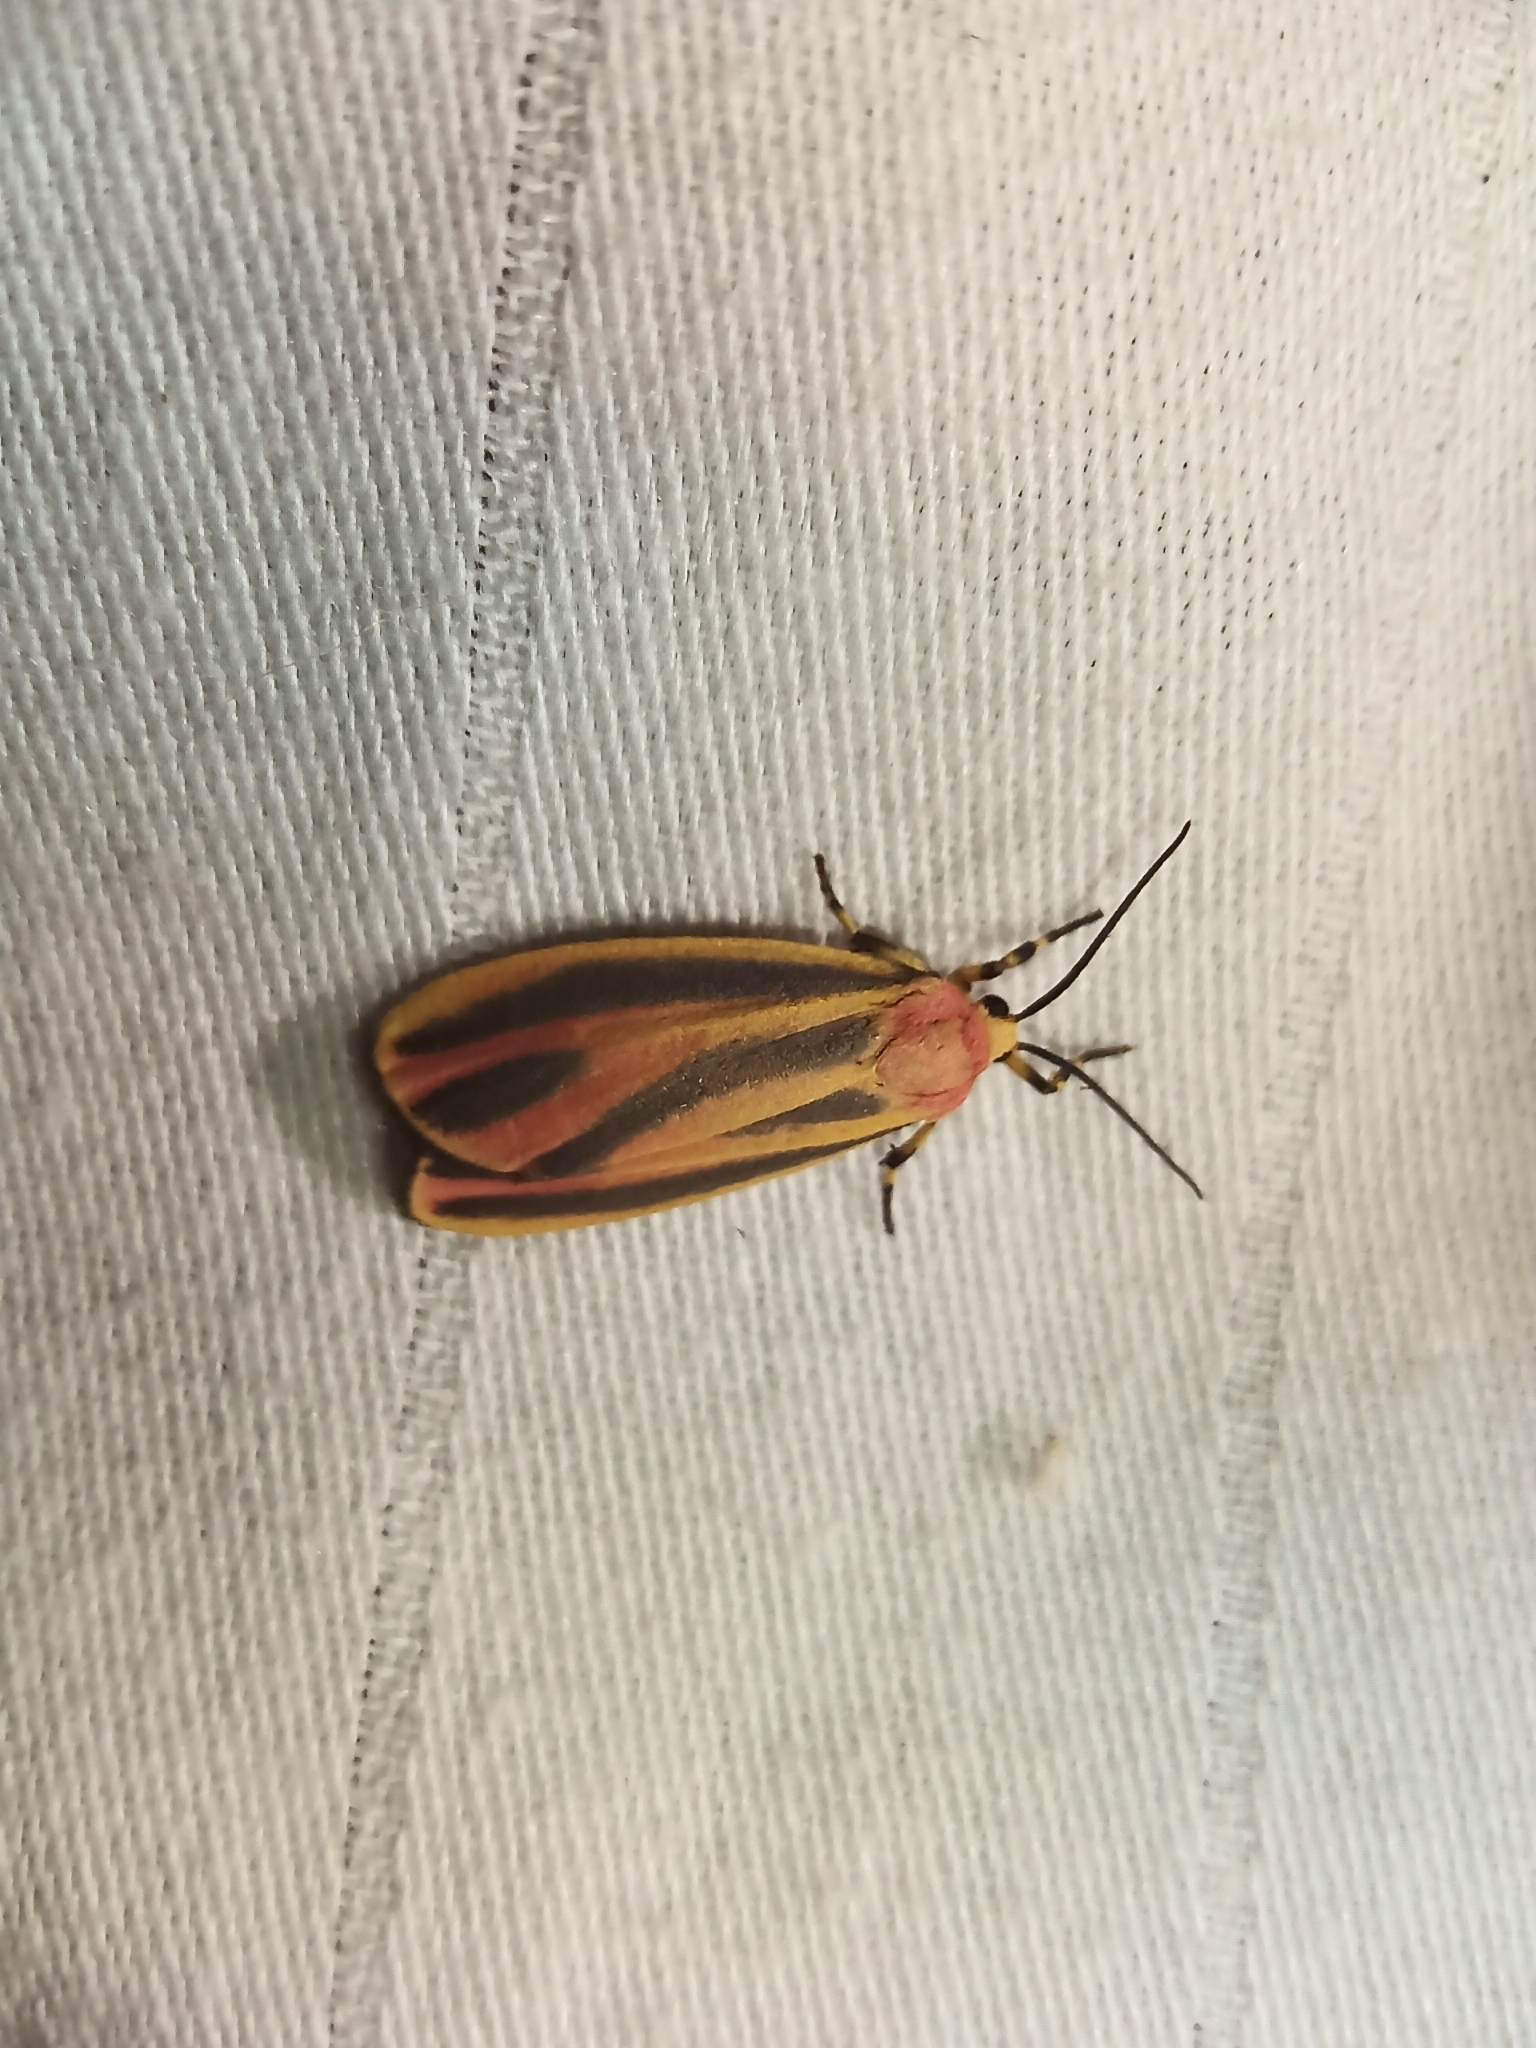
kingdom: Animalia
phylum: Arthropoda
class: Insecta
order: Lepidoptera
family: Erebidae
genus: Hypoprepia
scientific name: Hypoprepia fucosa
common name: Painted lichen moth
